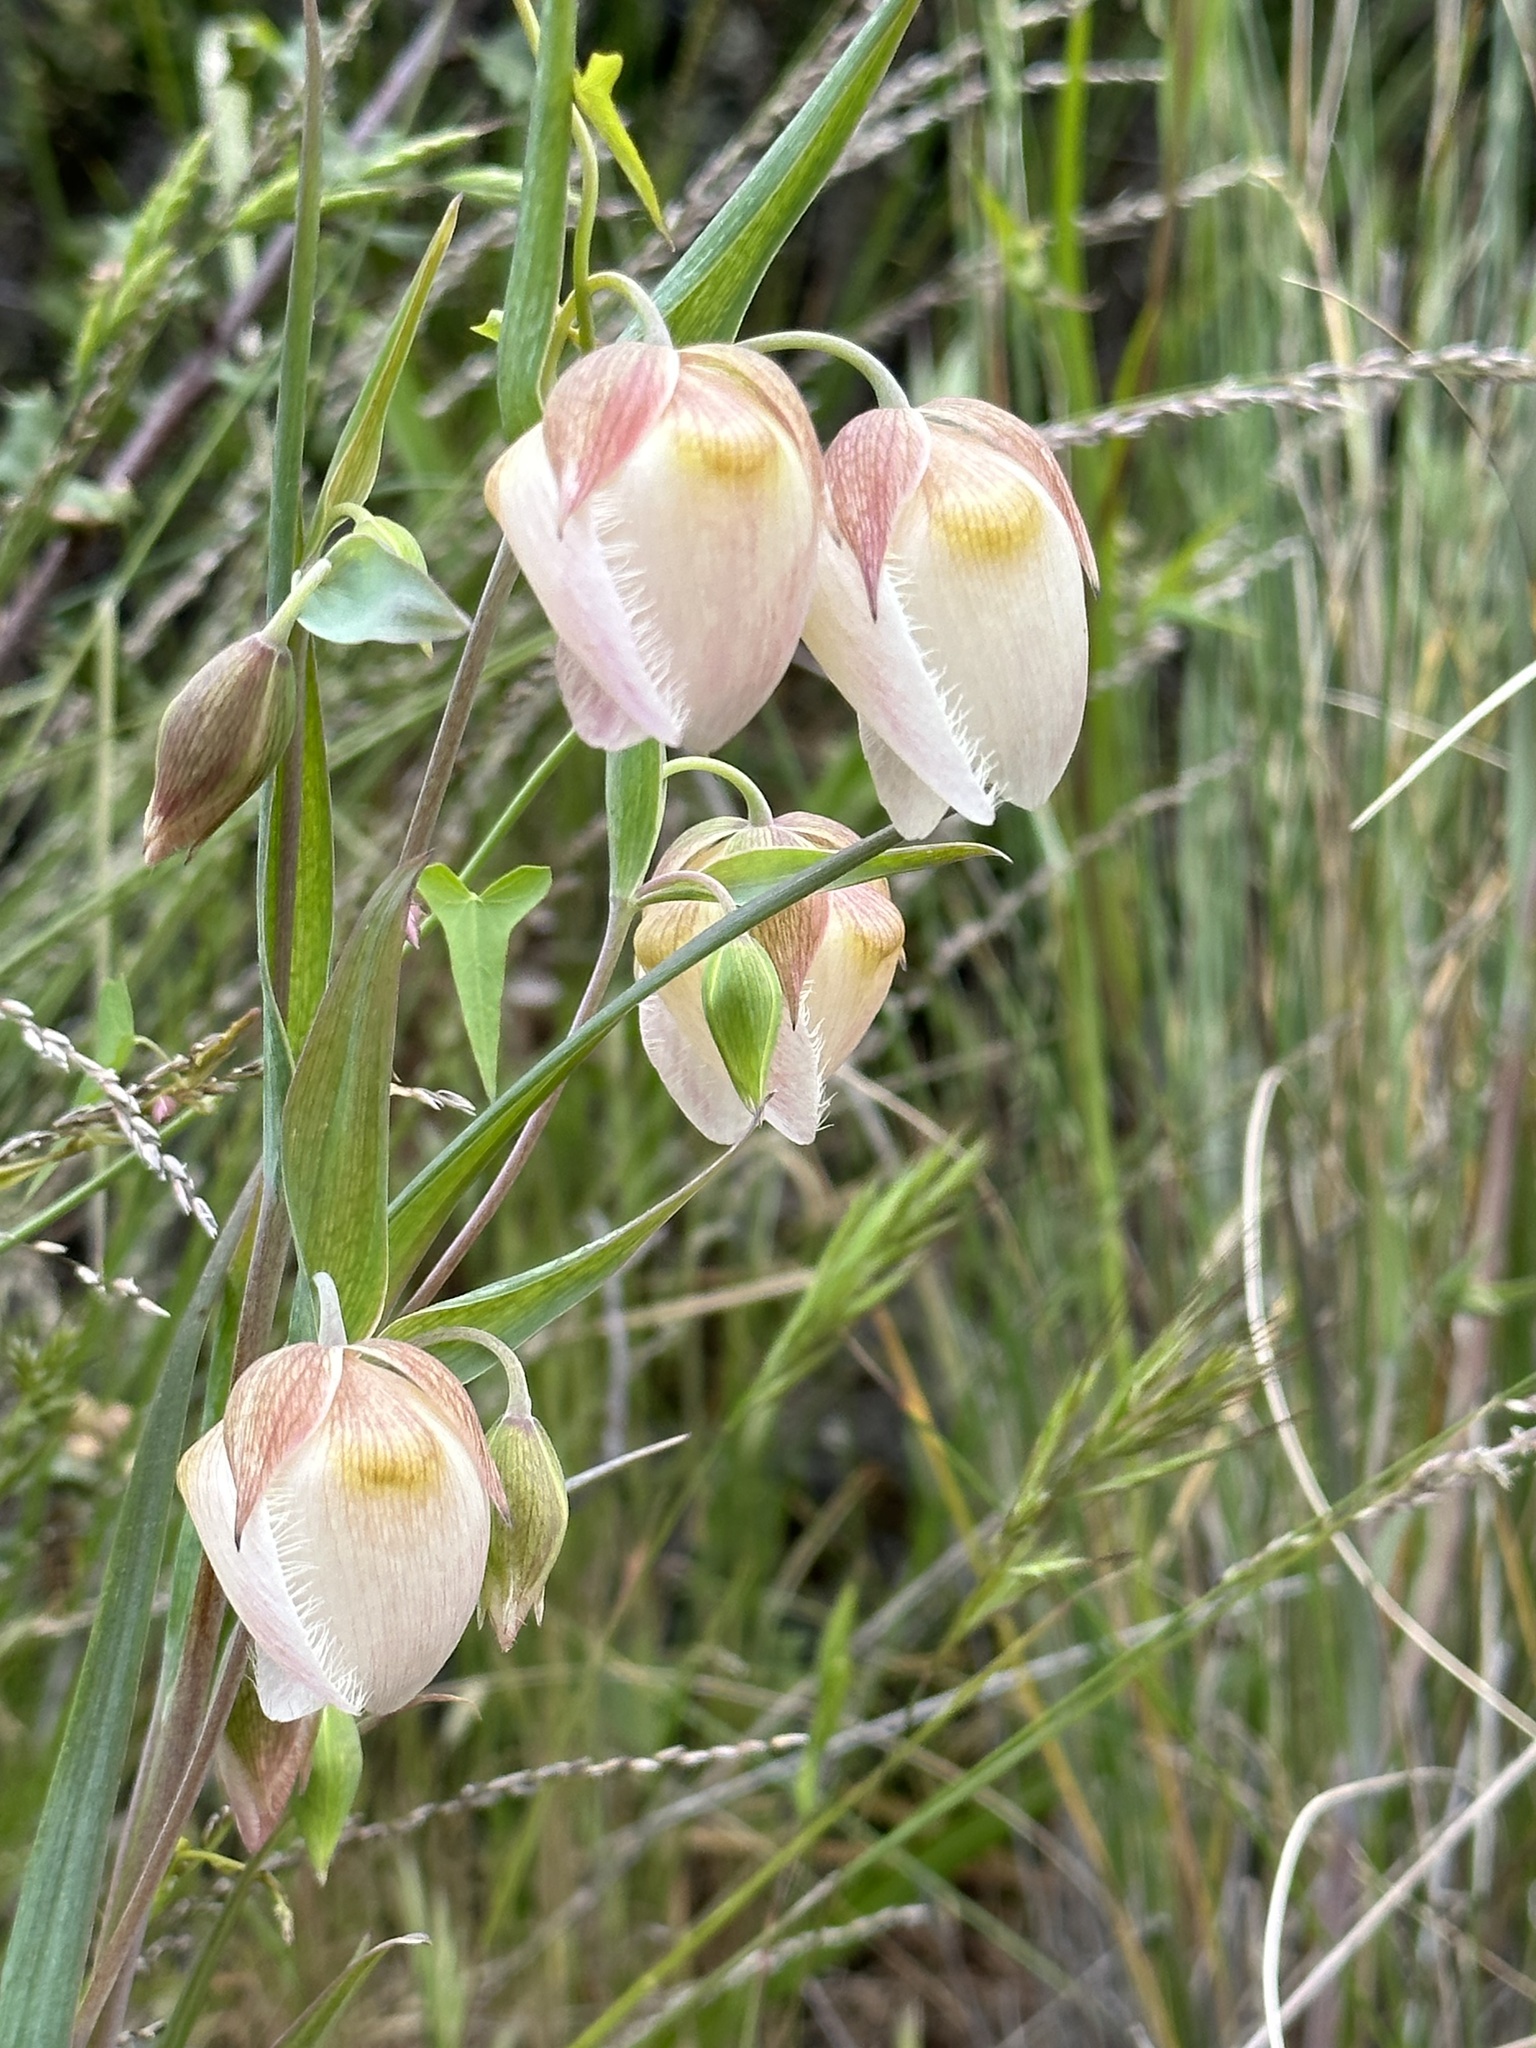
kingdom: Plantae
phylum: Tracheophyta
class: Liliopsida
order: Liliales
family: Liliaceae
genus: Calochortus
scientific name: Calochortus albus
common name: Fairy-lantern
